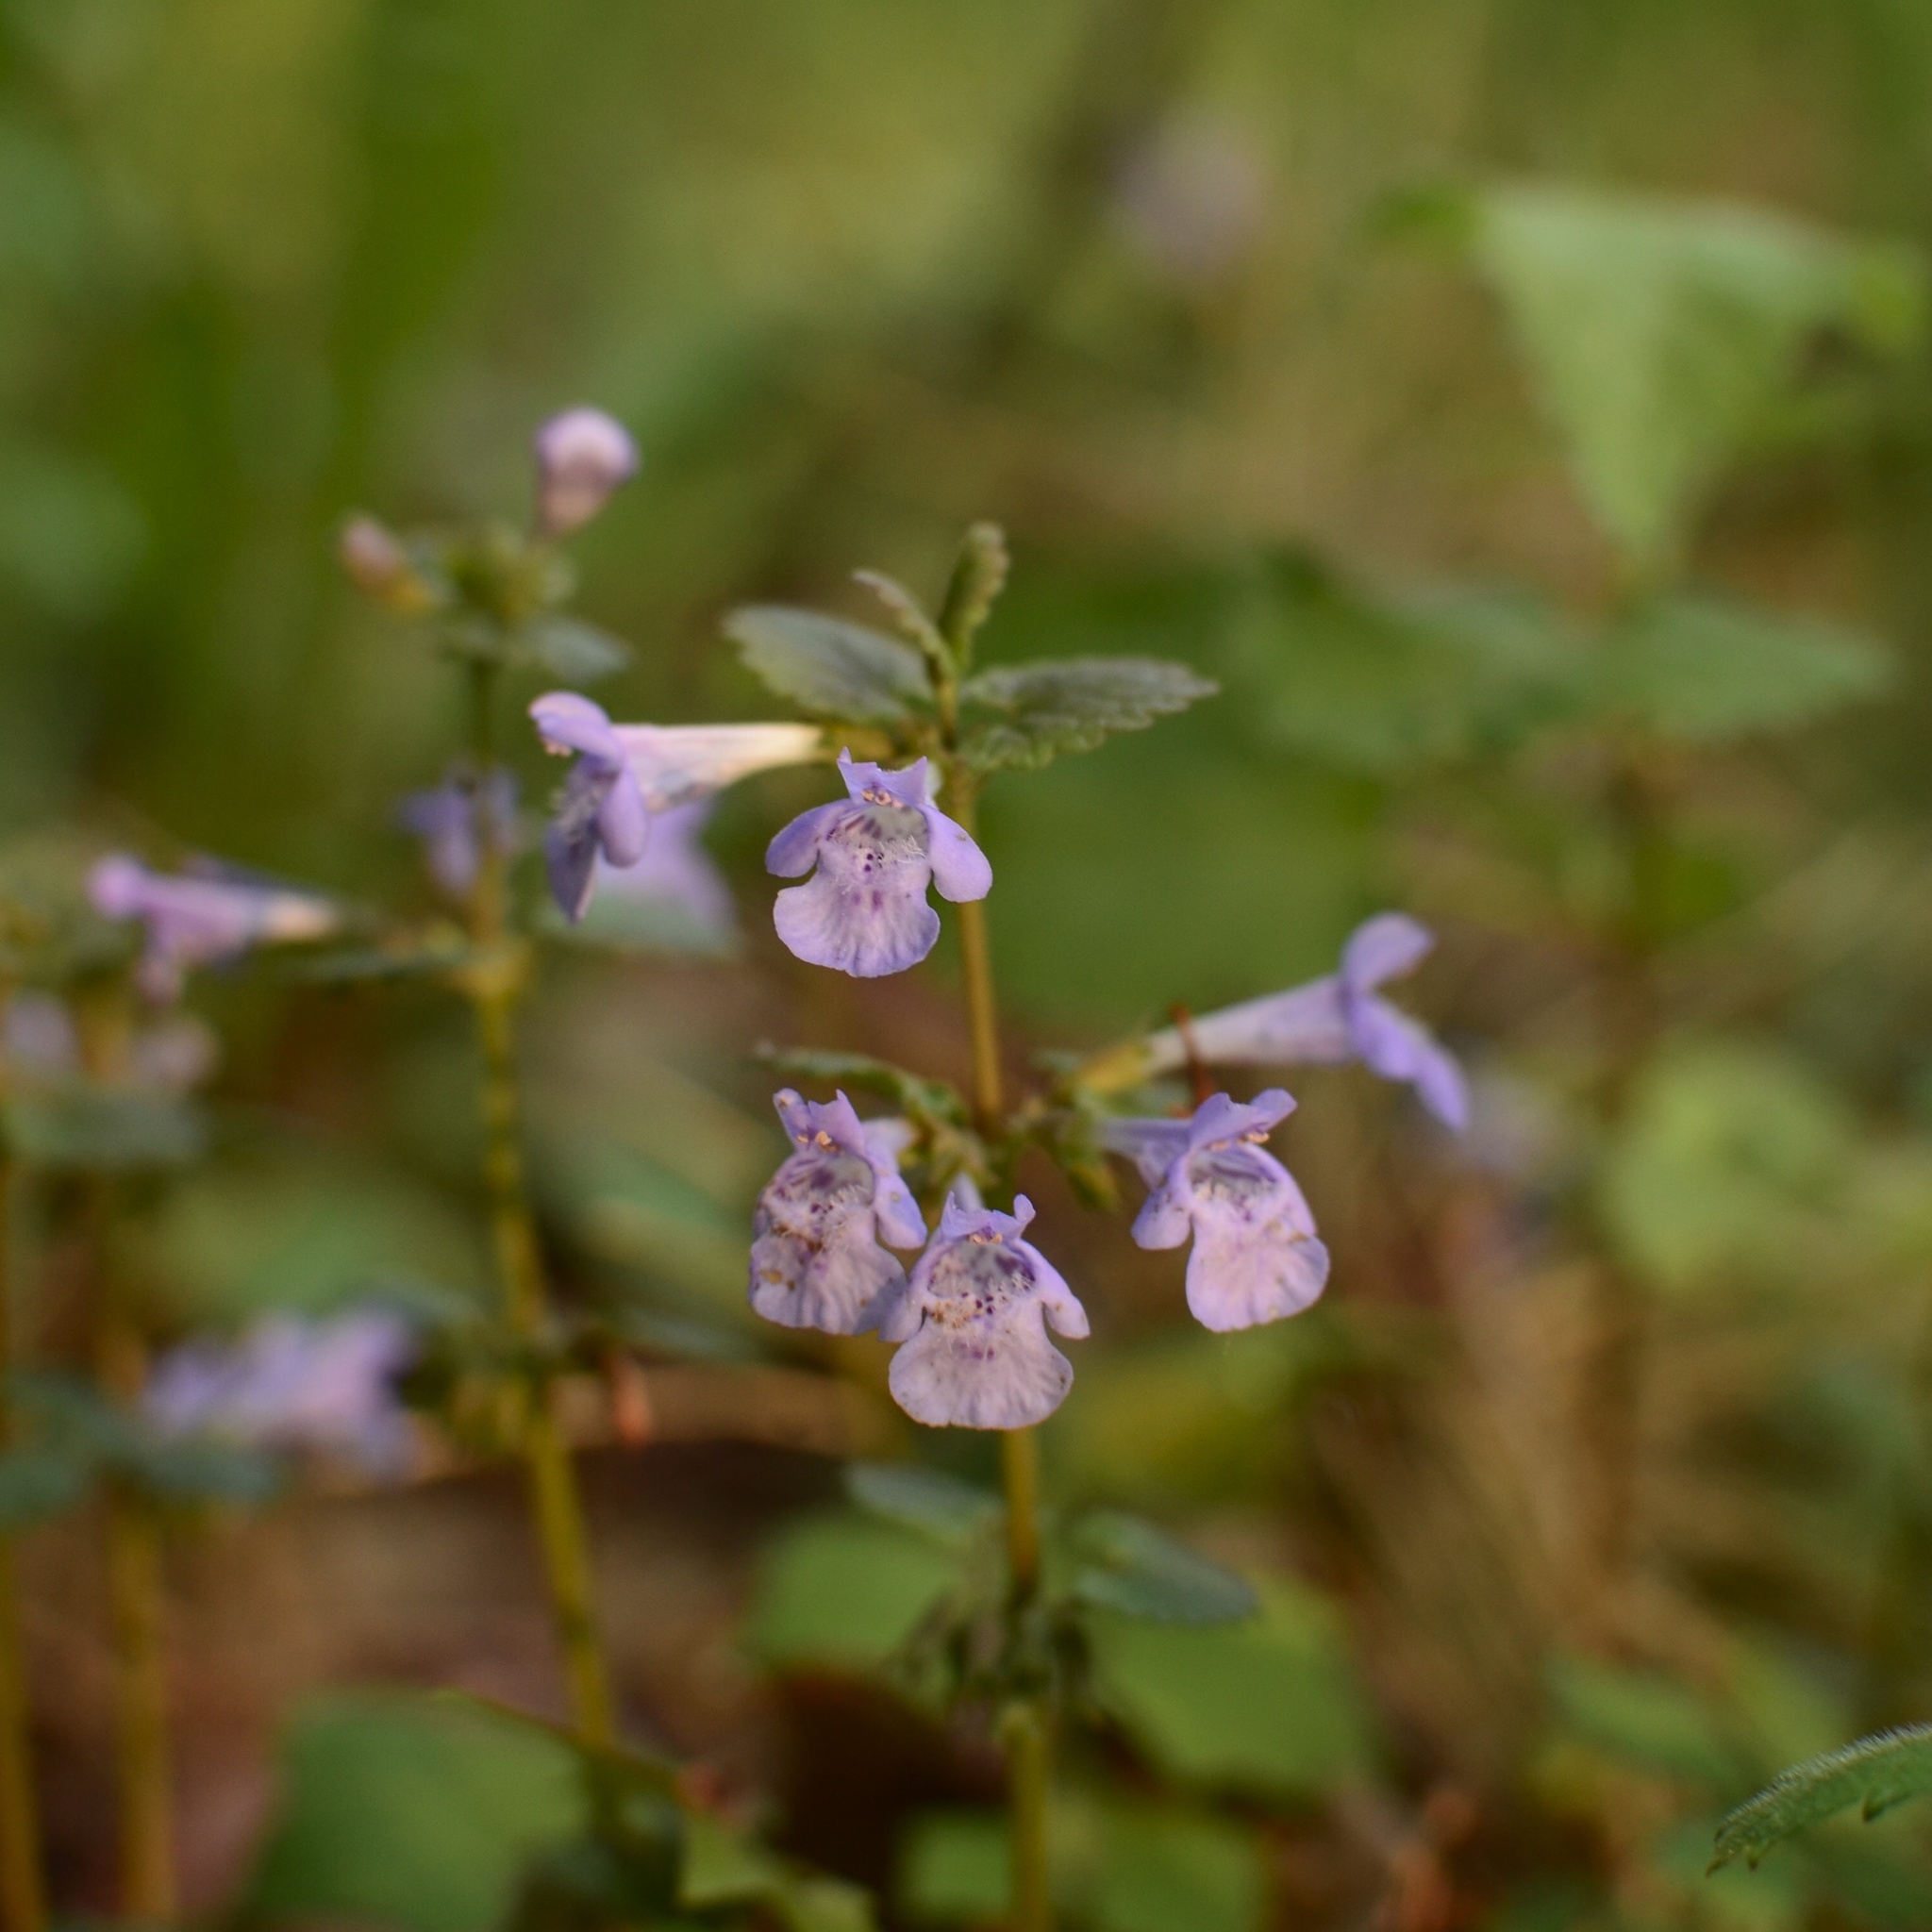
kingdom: Plantae
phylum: Tracheophyta
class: Magnoliopsida
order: Lamiales
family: Lamiaceae
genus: Glechoma
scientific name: Glechoma hederacea
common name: Ground ivy
